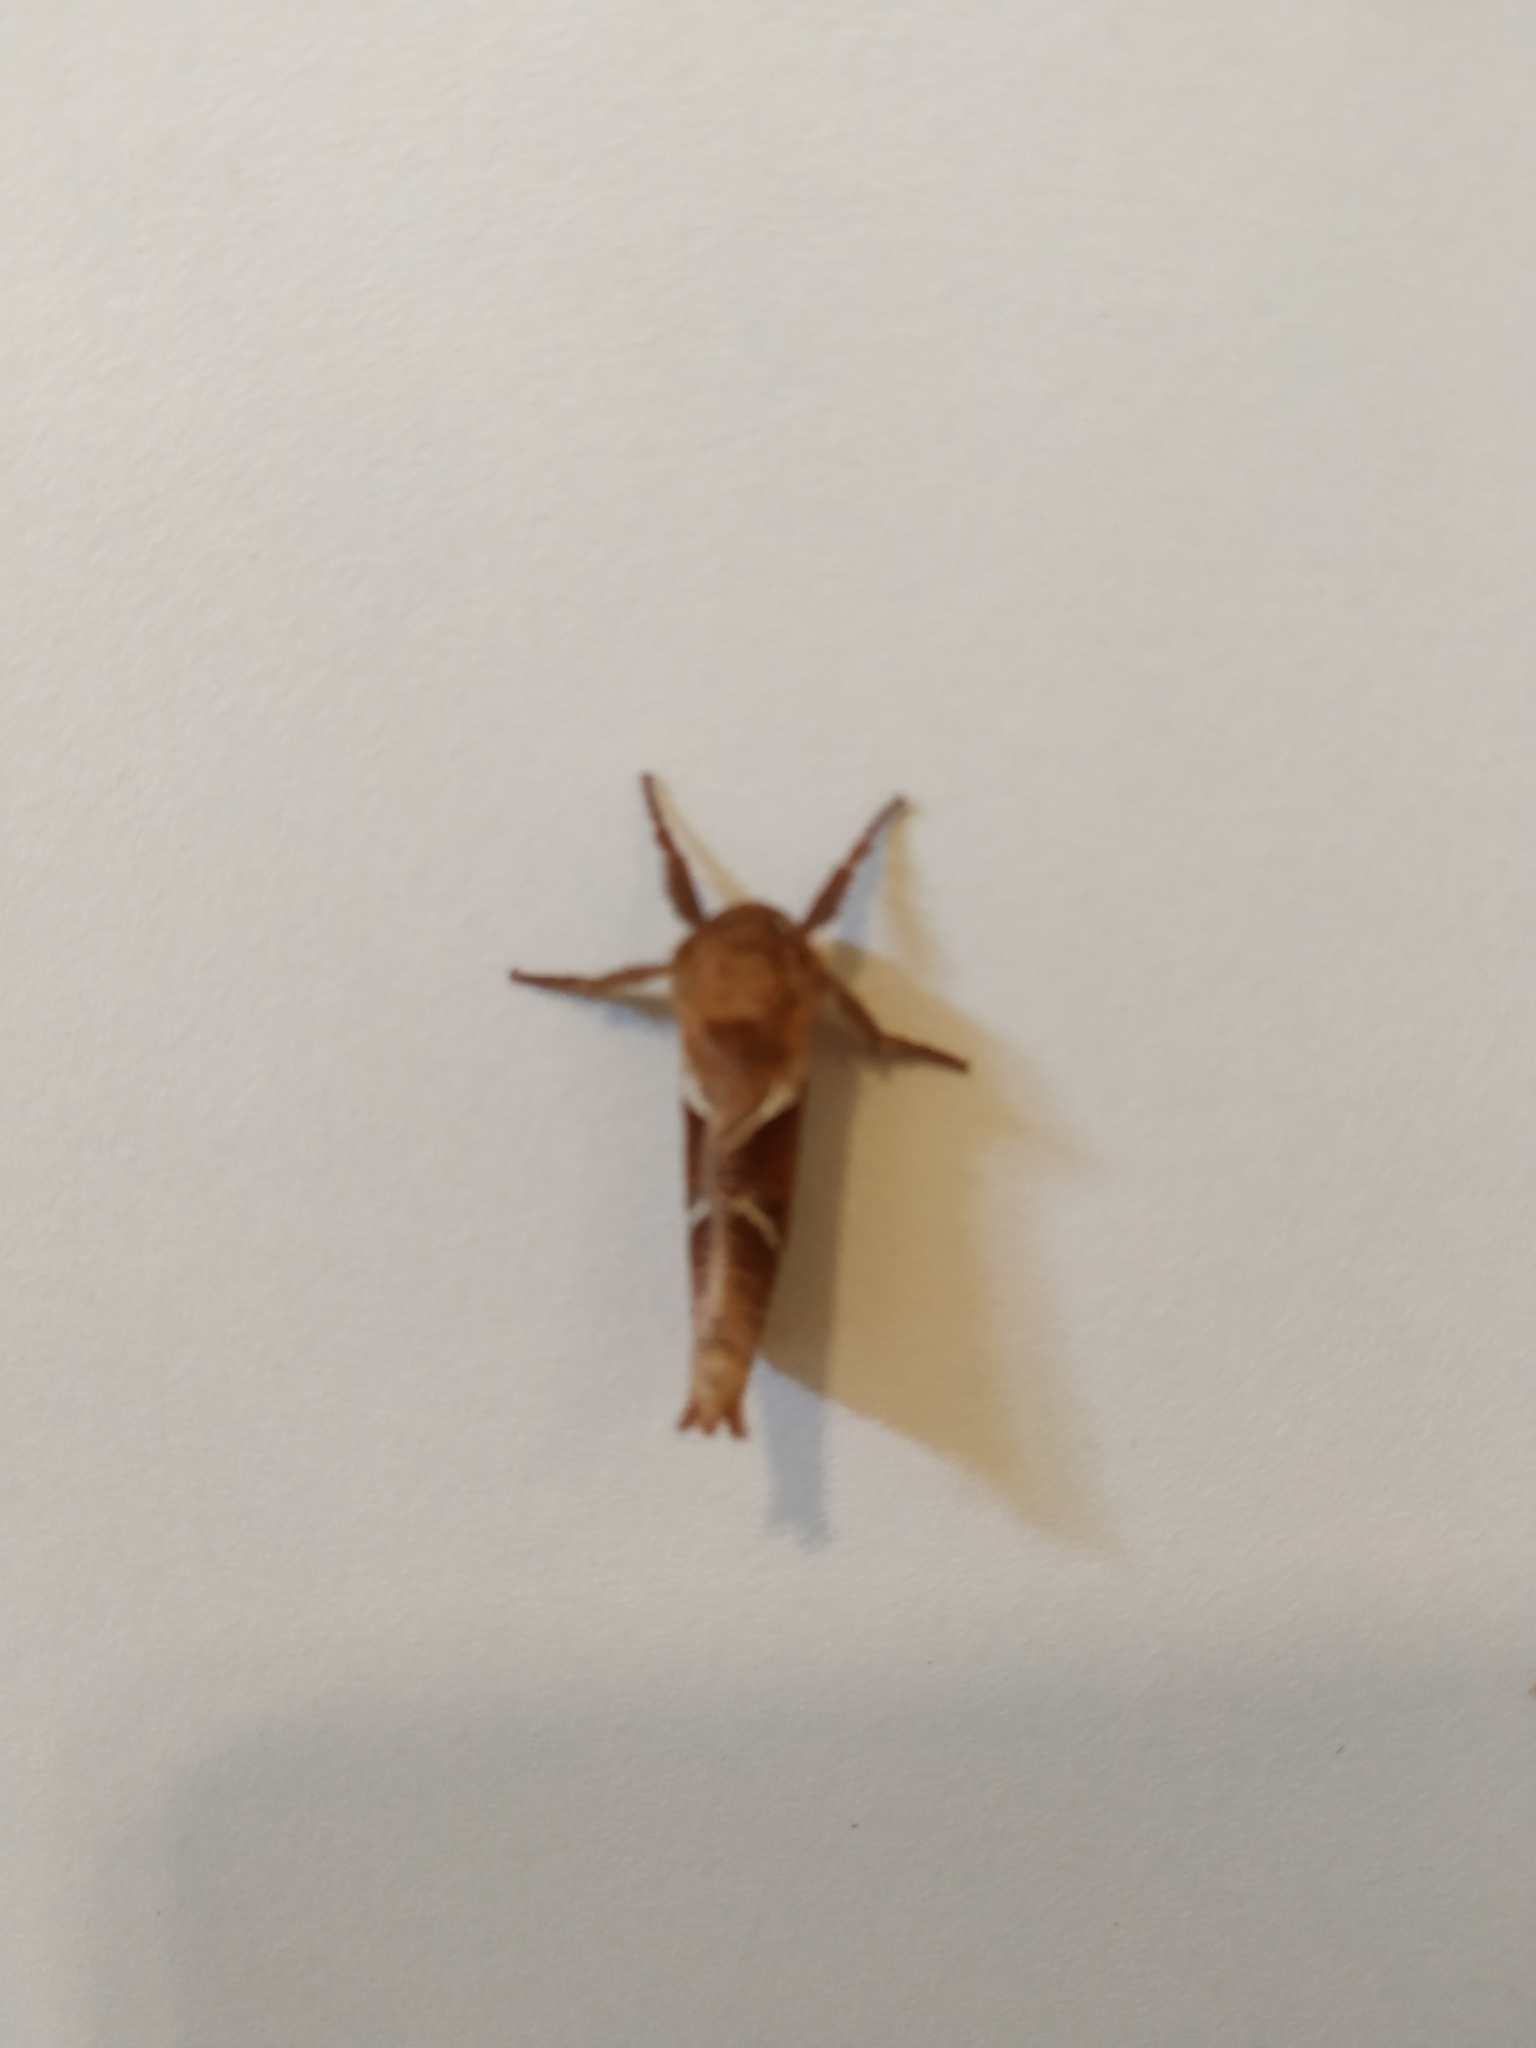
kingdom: Animalia
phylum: Arthropoda
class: Insecta
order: Lepidoptera
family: Hepialidae
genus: Triodia
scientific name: Triodia sylvina
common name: Orange swift
